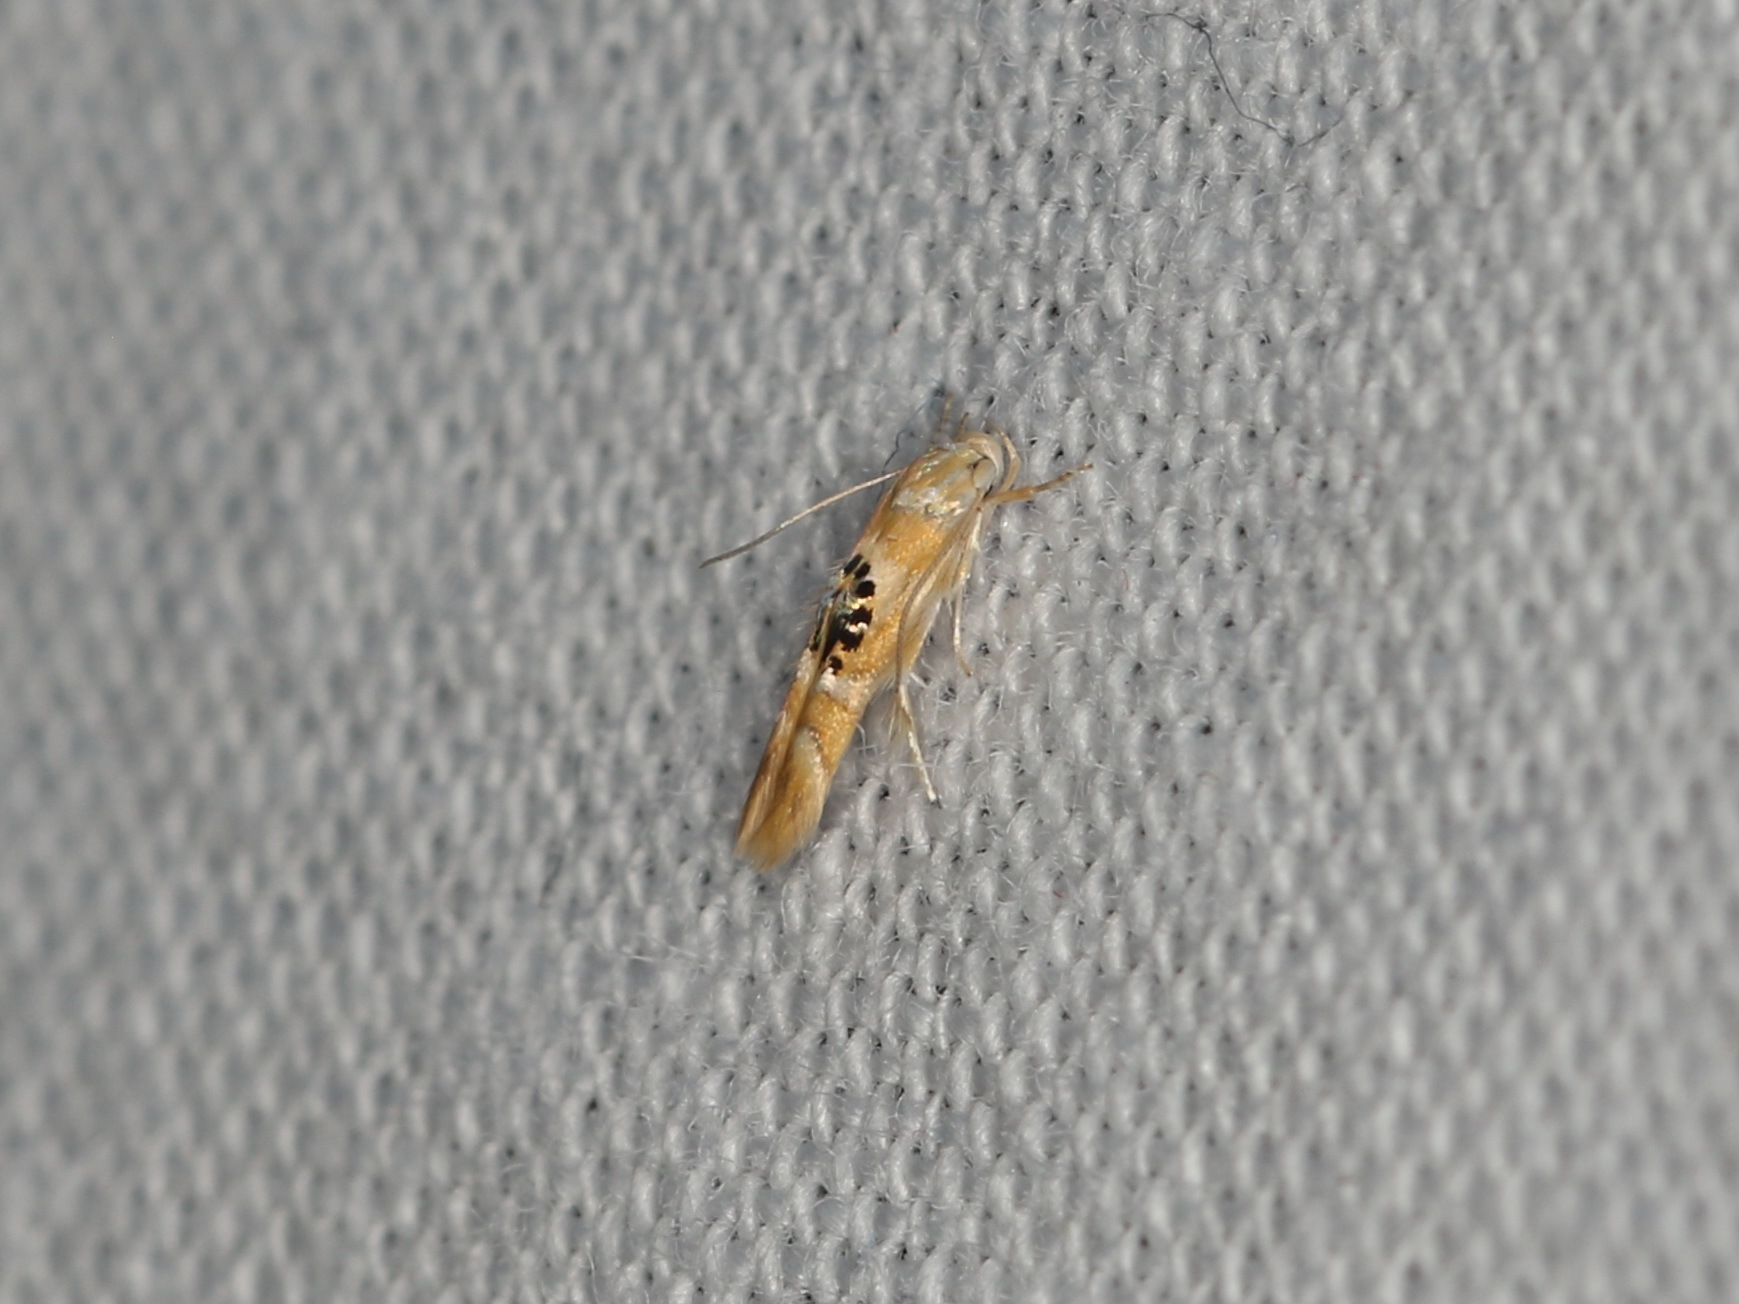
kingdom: Animalia
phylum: Arthropoda
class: Insecta
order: Lepidoptera
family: Stathmopodidae
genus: Hieromantis
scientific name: Hieromantis ephodophora
